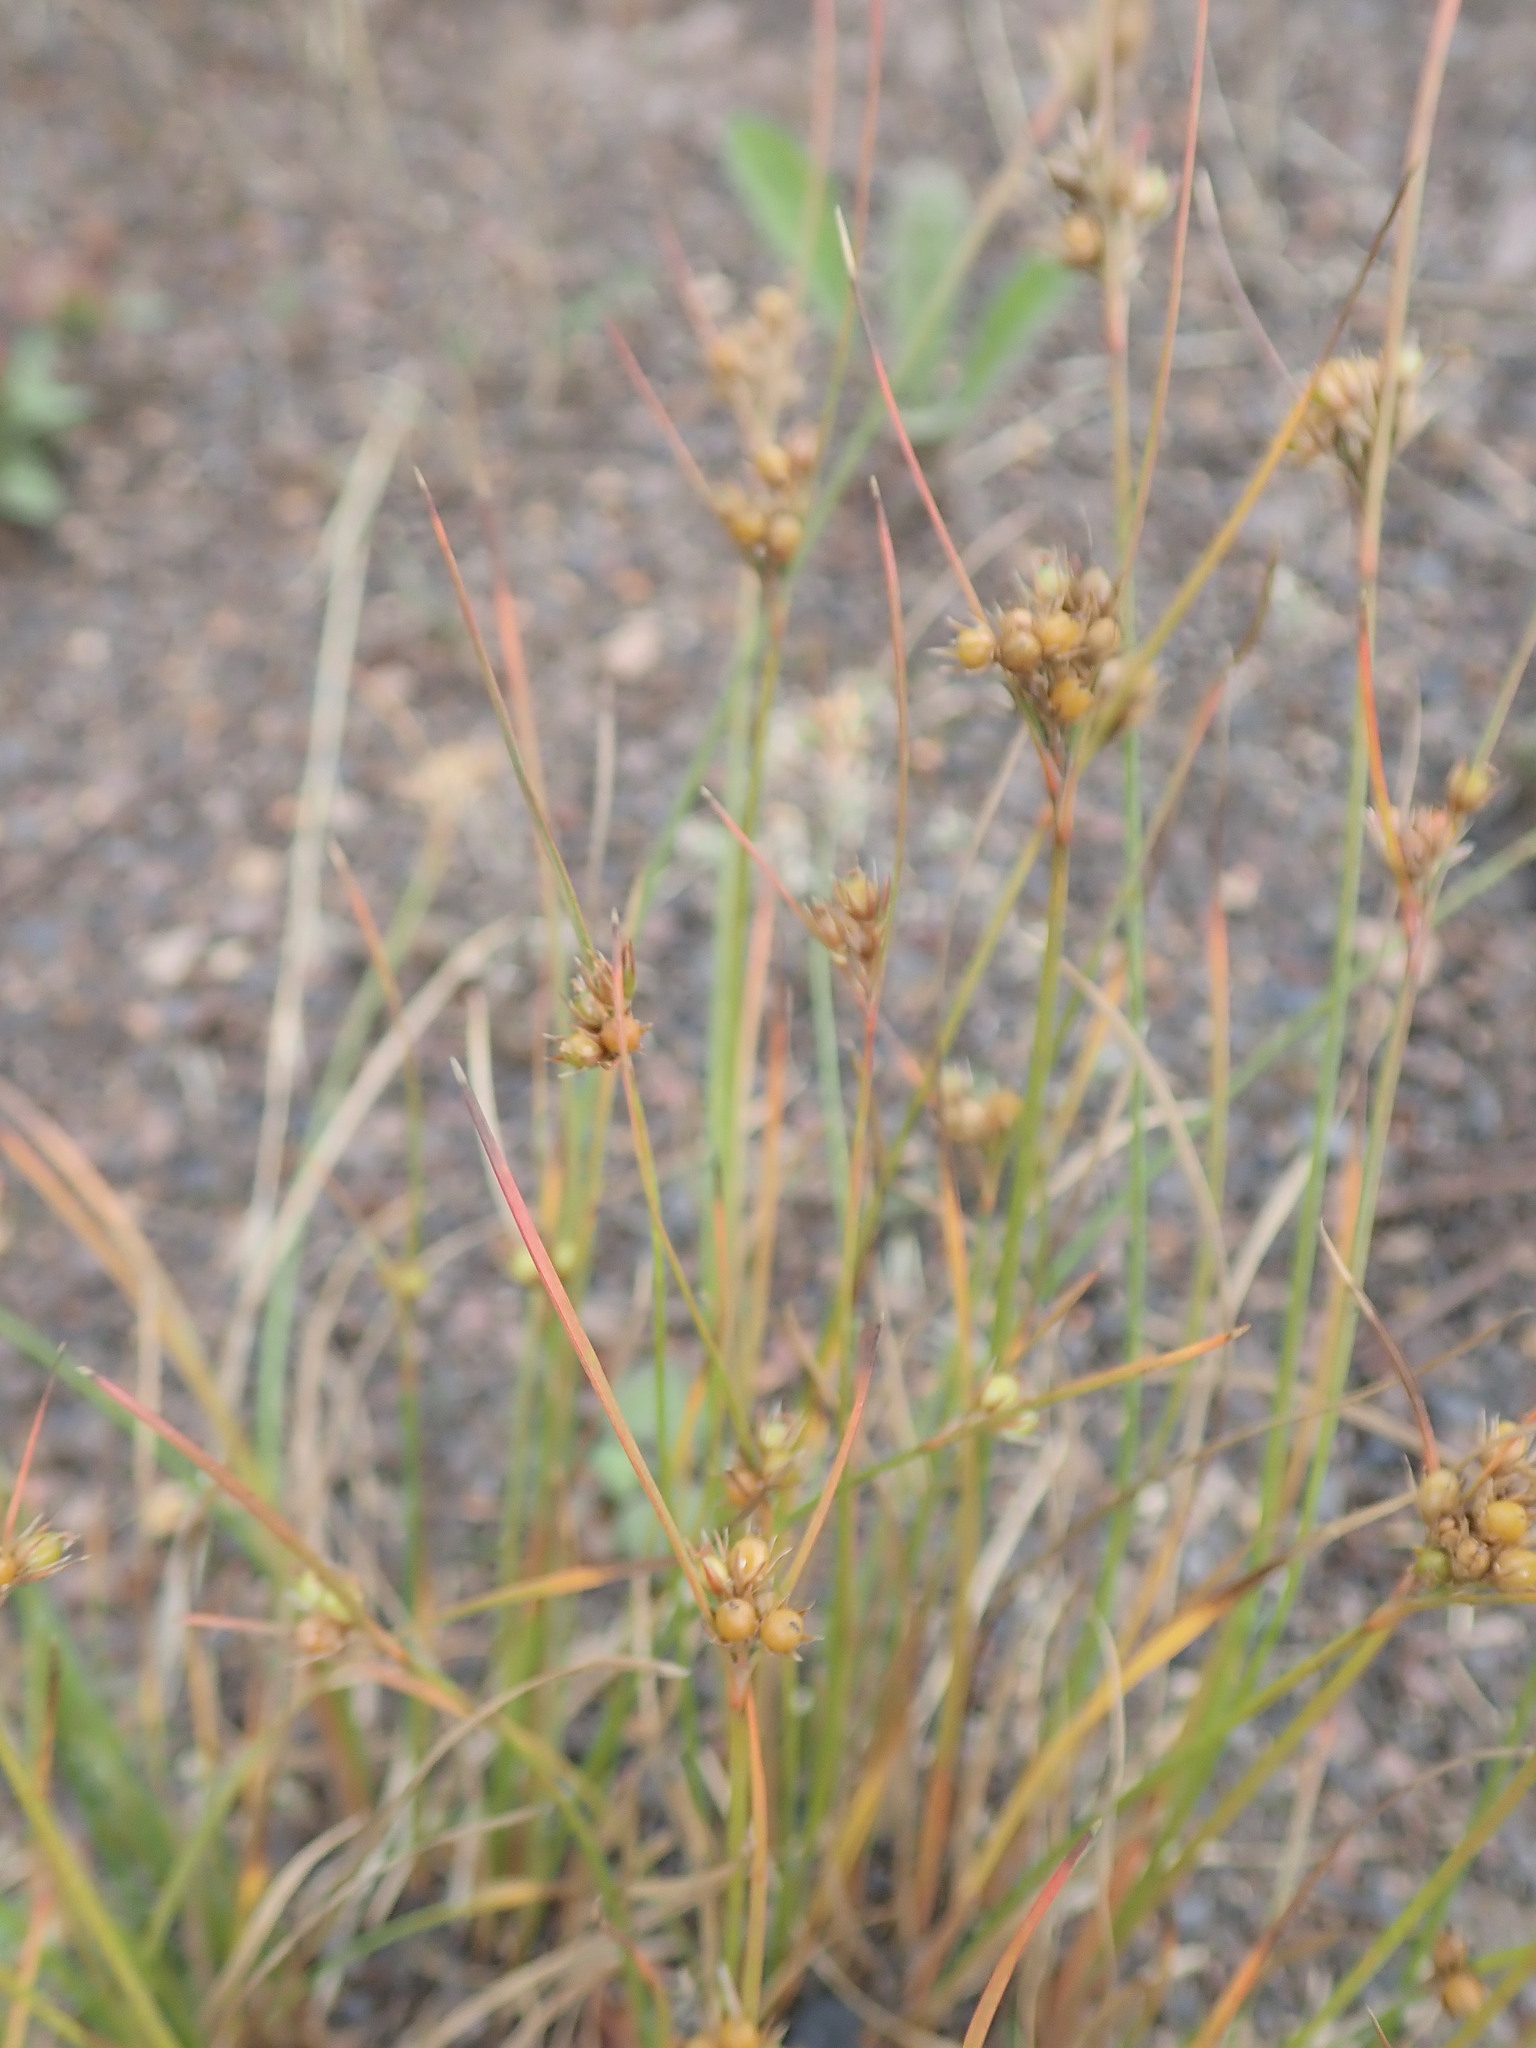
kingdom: Plantae
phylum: Tracheophyta
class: Liliopsida
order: Poales
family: Juncaceae
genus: Juncus
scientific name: Juncus tenuis
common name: Slender rush
